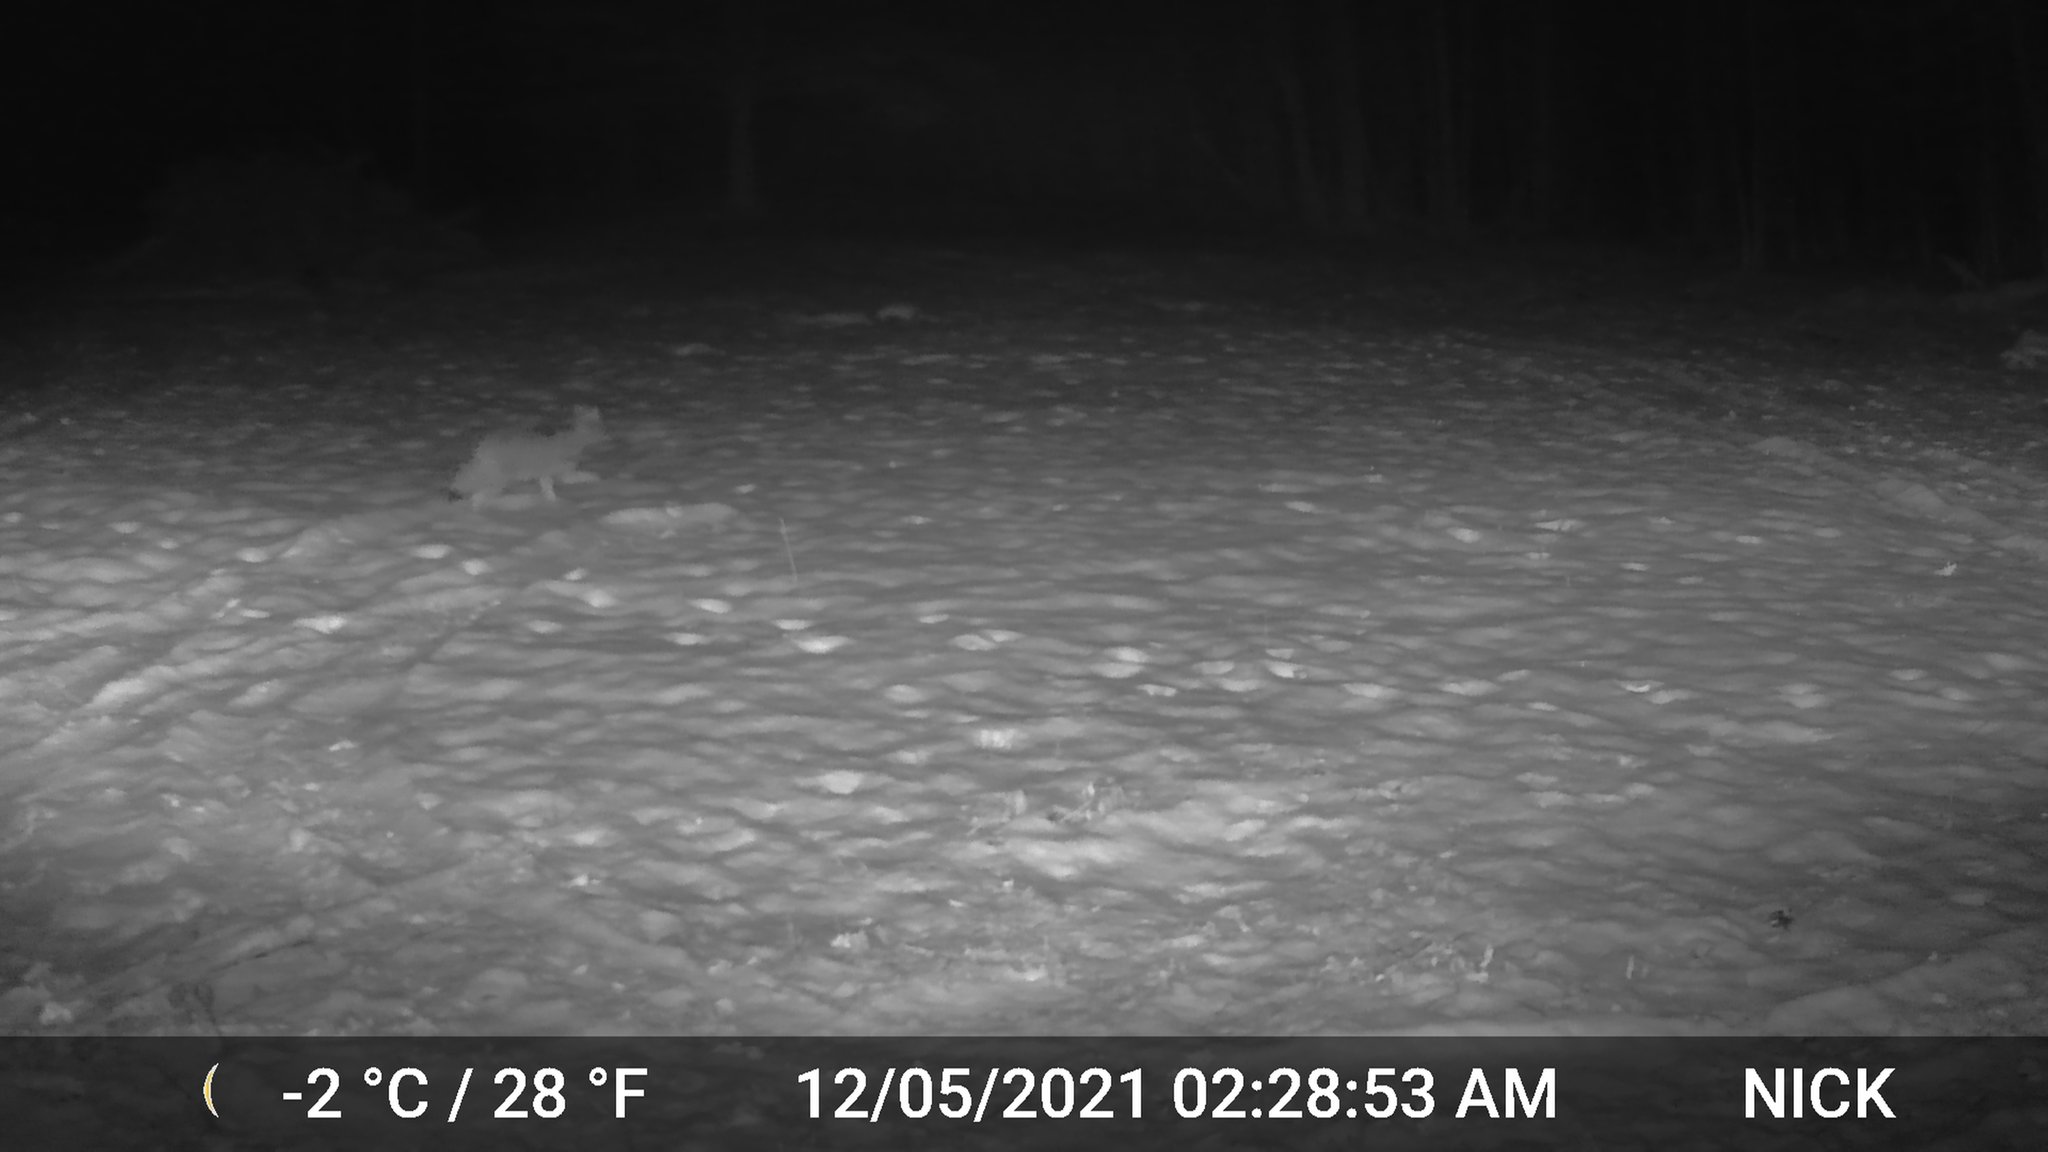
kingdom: Animalia
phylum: Chordata
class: Mammalia
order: Carnivora
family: Canidae
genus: Canis
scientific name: Canis latrans
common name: Coyote
